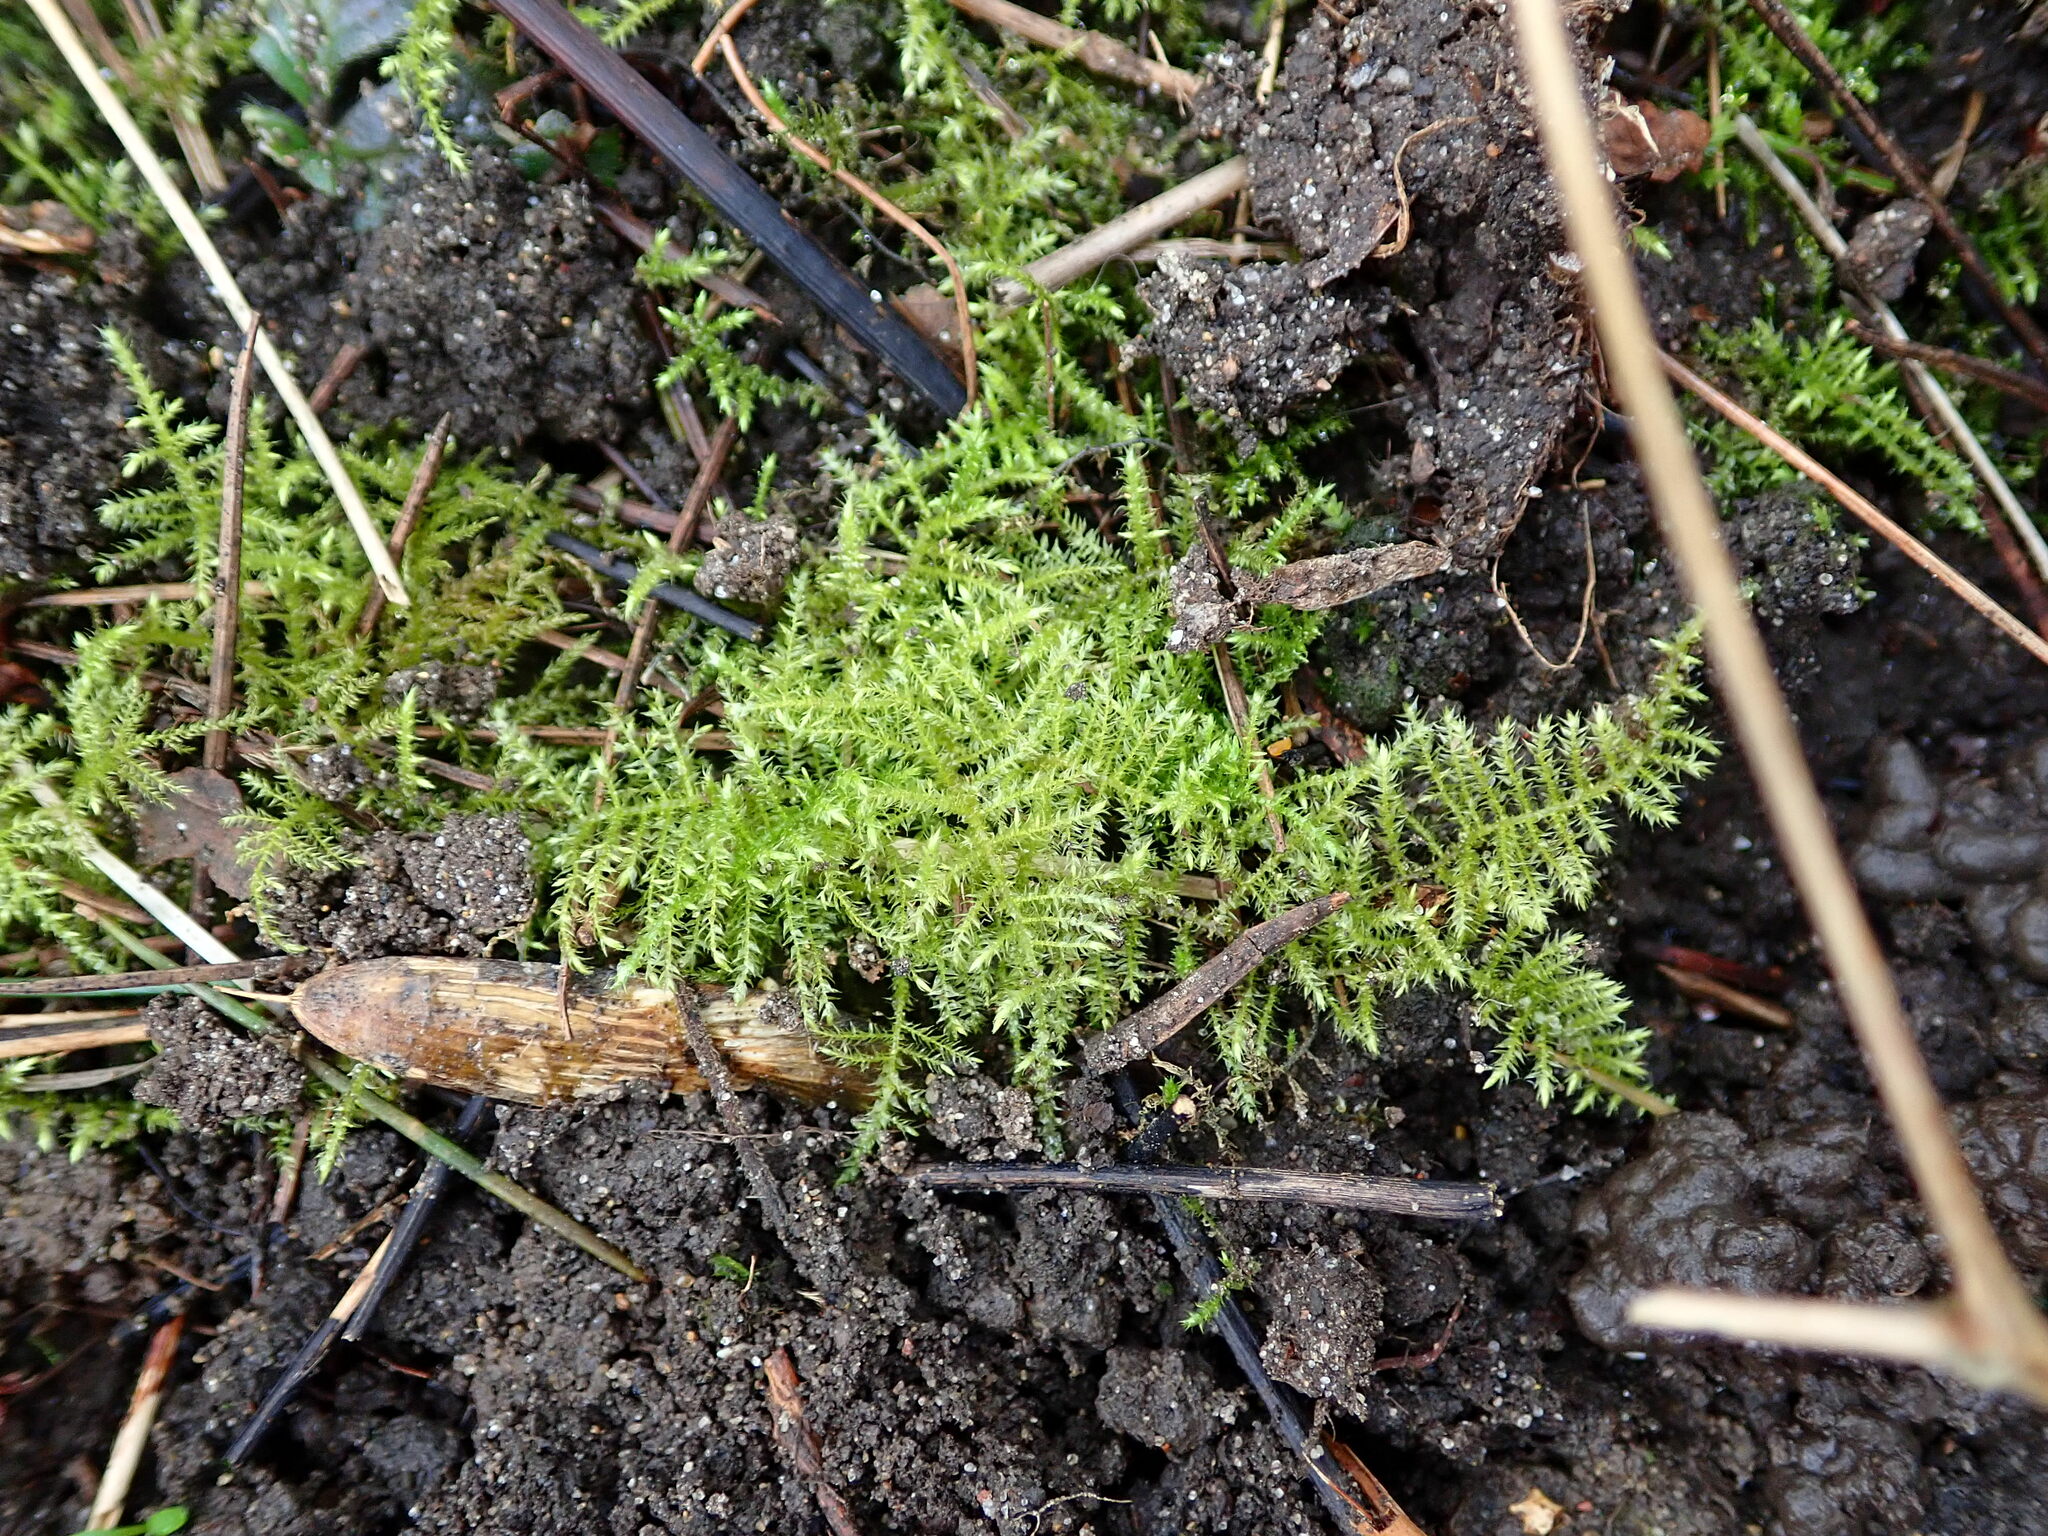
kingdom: Plantae
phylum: Bryophyta
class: Bryopsida
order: Hypnales
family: Brachytheciaceae
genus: Kindbergia
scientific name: Kindbergia praelonga
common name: Slender beaked moss
